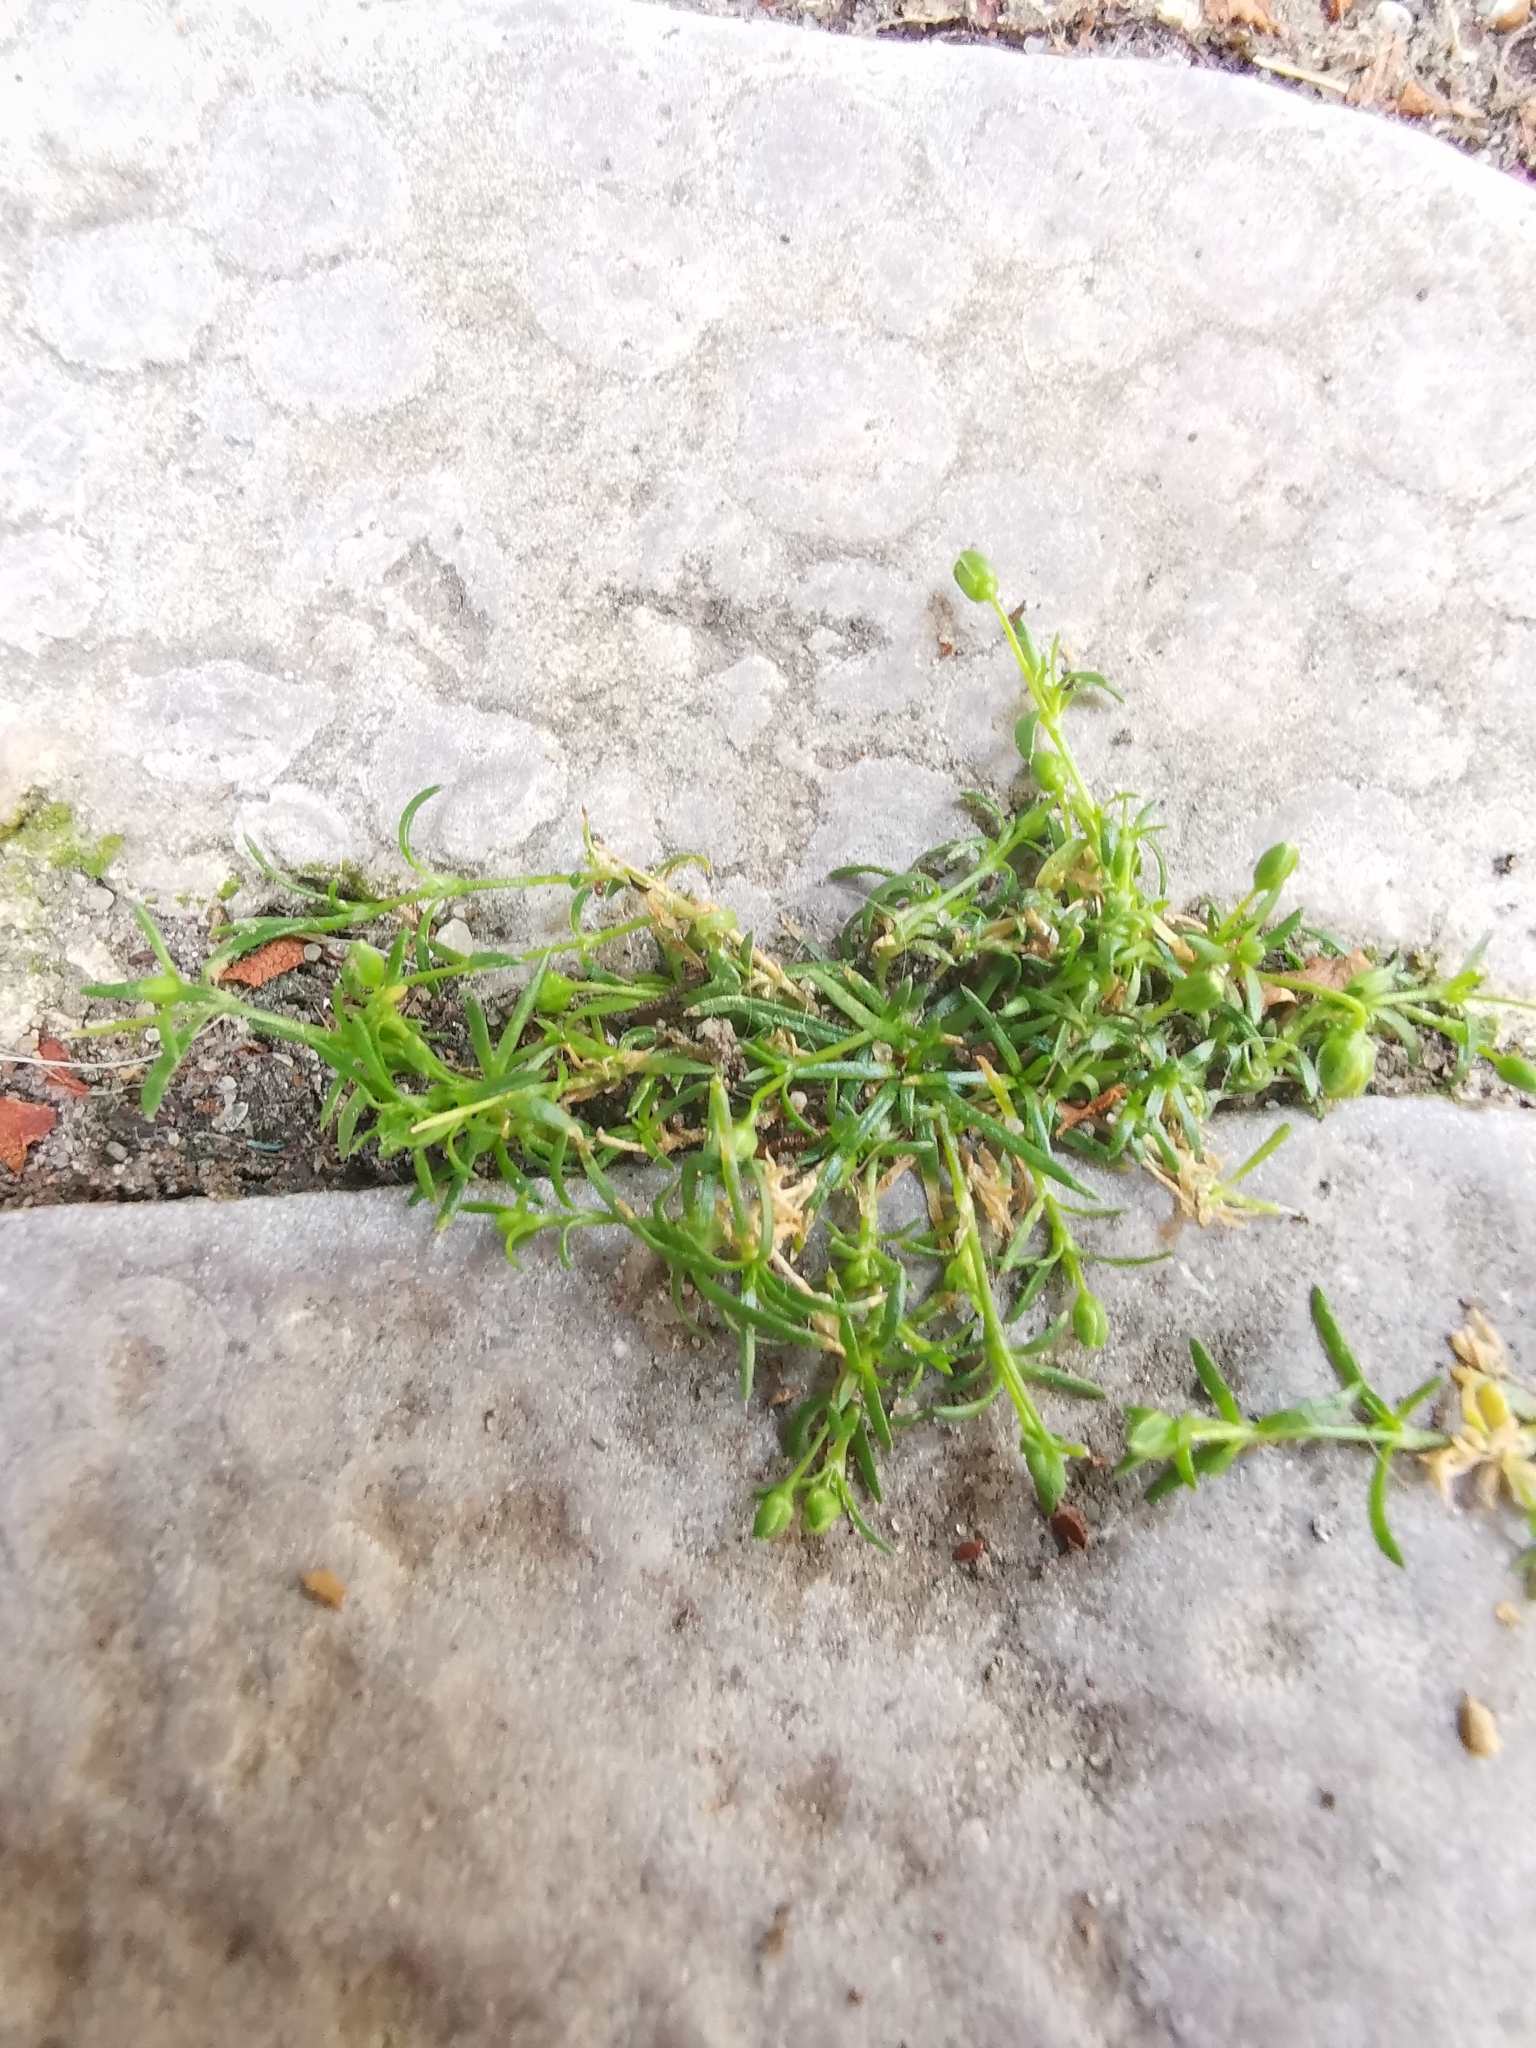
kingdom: Plantae
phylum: Tracheophyta
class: Magnoliopsida
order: Caryophyllales
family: Caryophyllaceae
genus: Sagina
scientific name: Sagina procumbens
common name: Procumbent pearlwort
